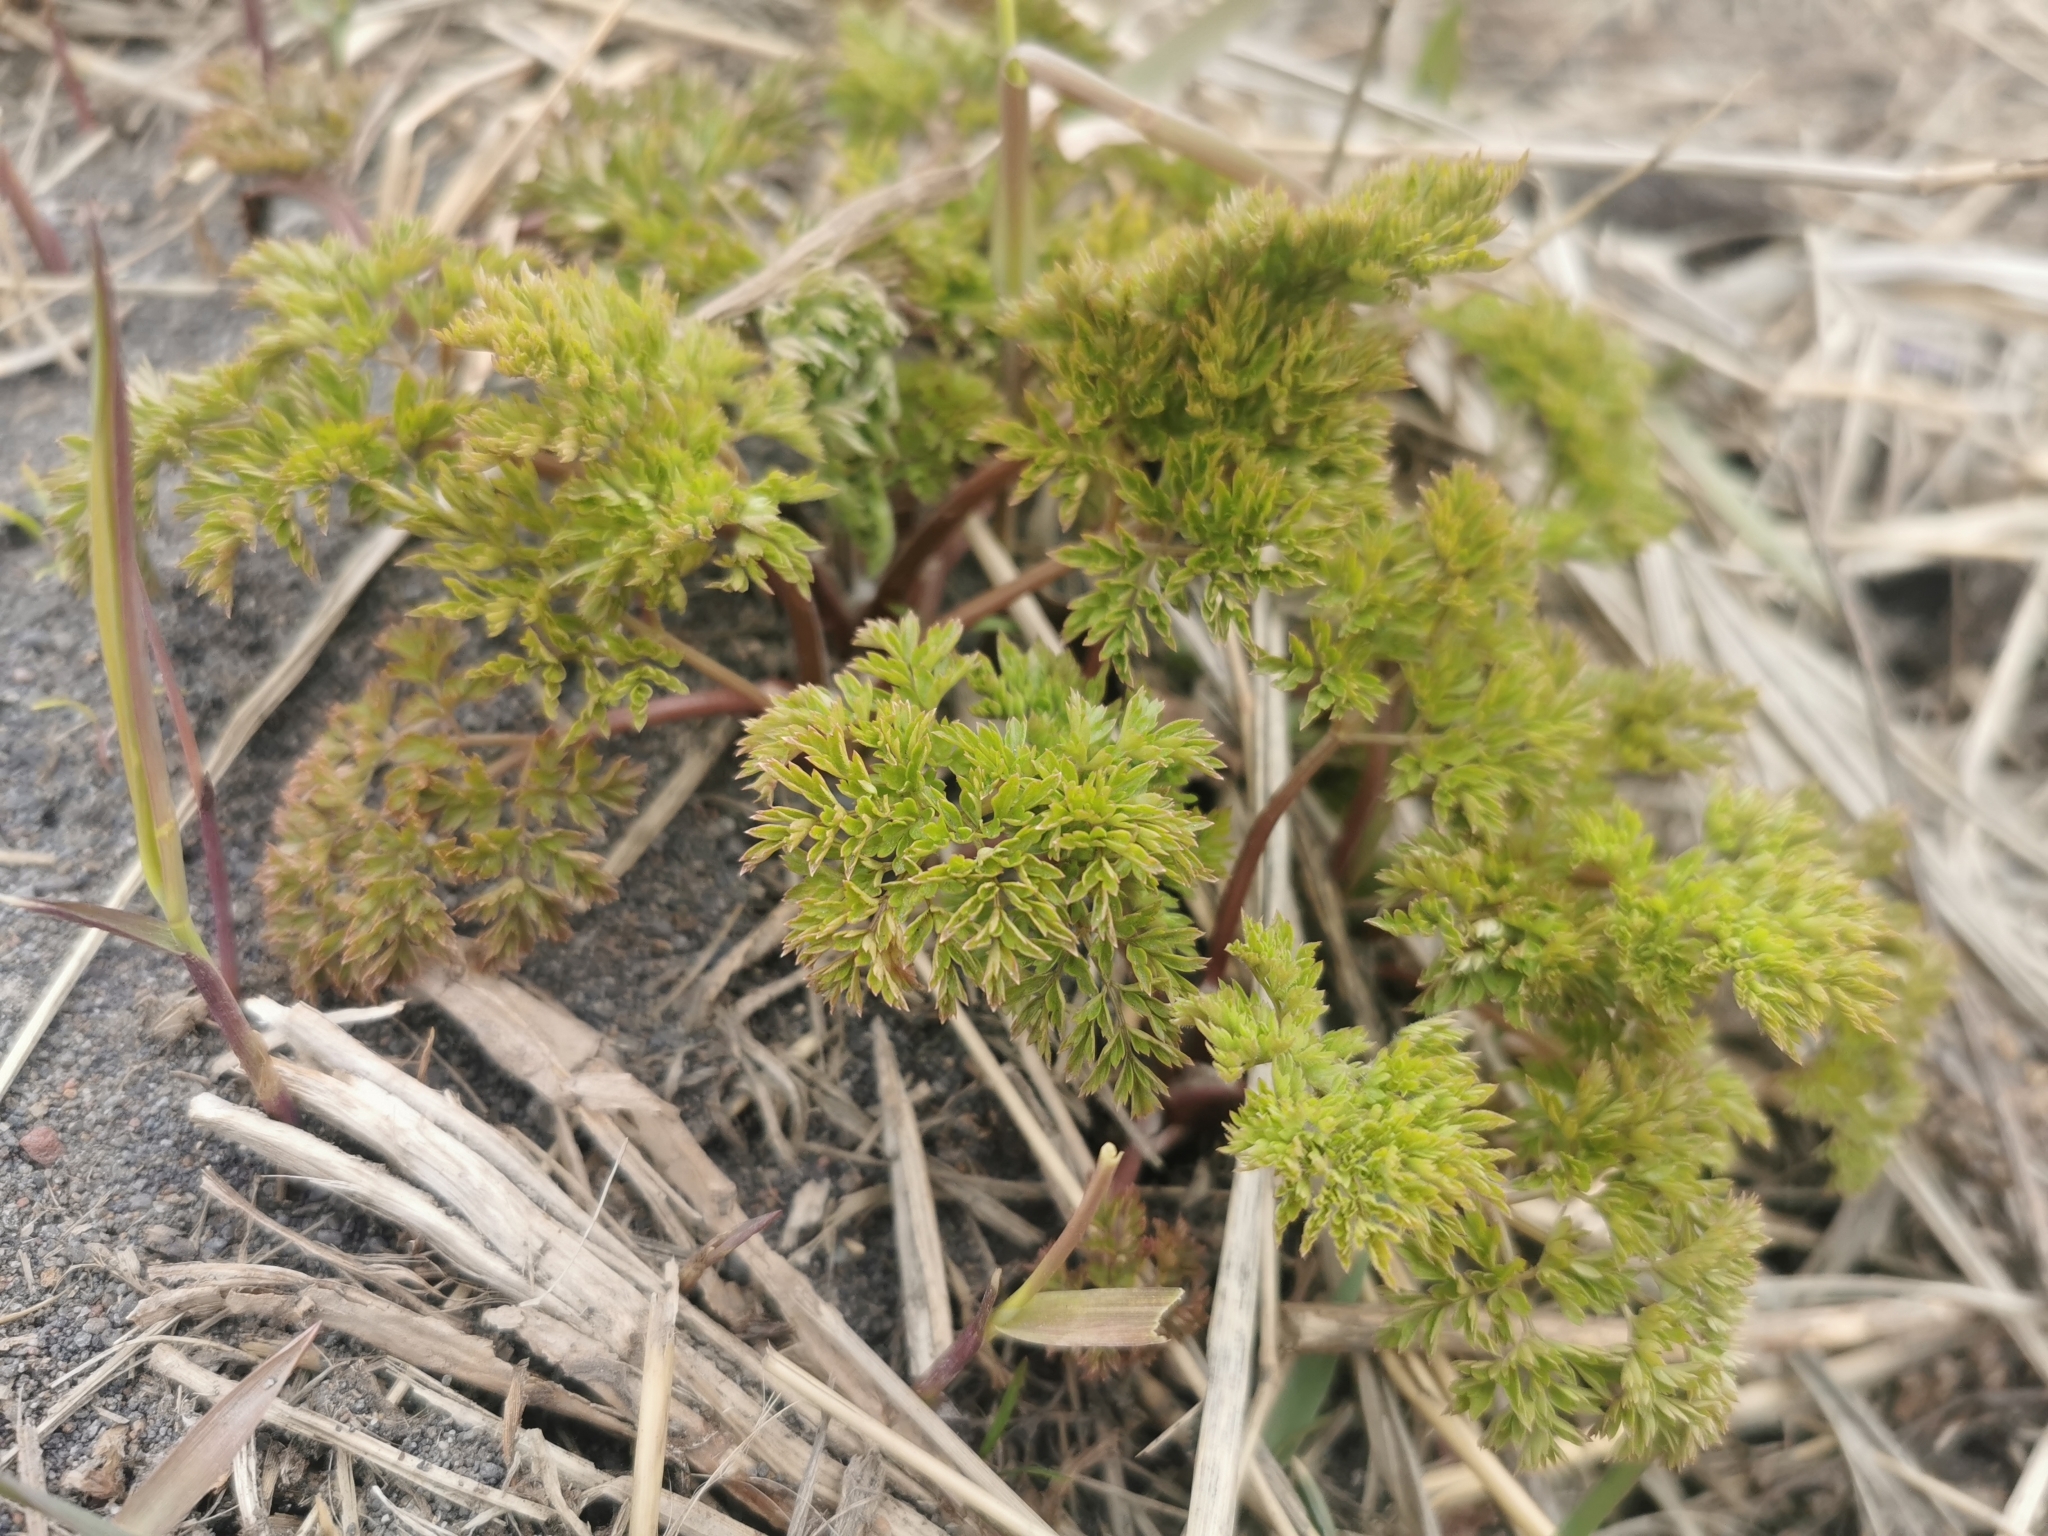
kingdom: Plantae
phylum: Tracheophyta
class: Magnoliopsida
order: Apiales
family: Apiaceae
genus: Anthriscus
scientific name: Anthriscus sylvestris
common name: Cow parsley
